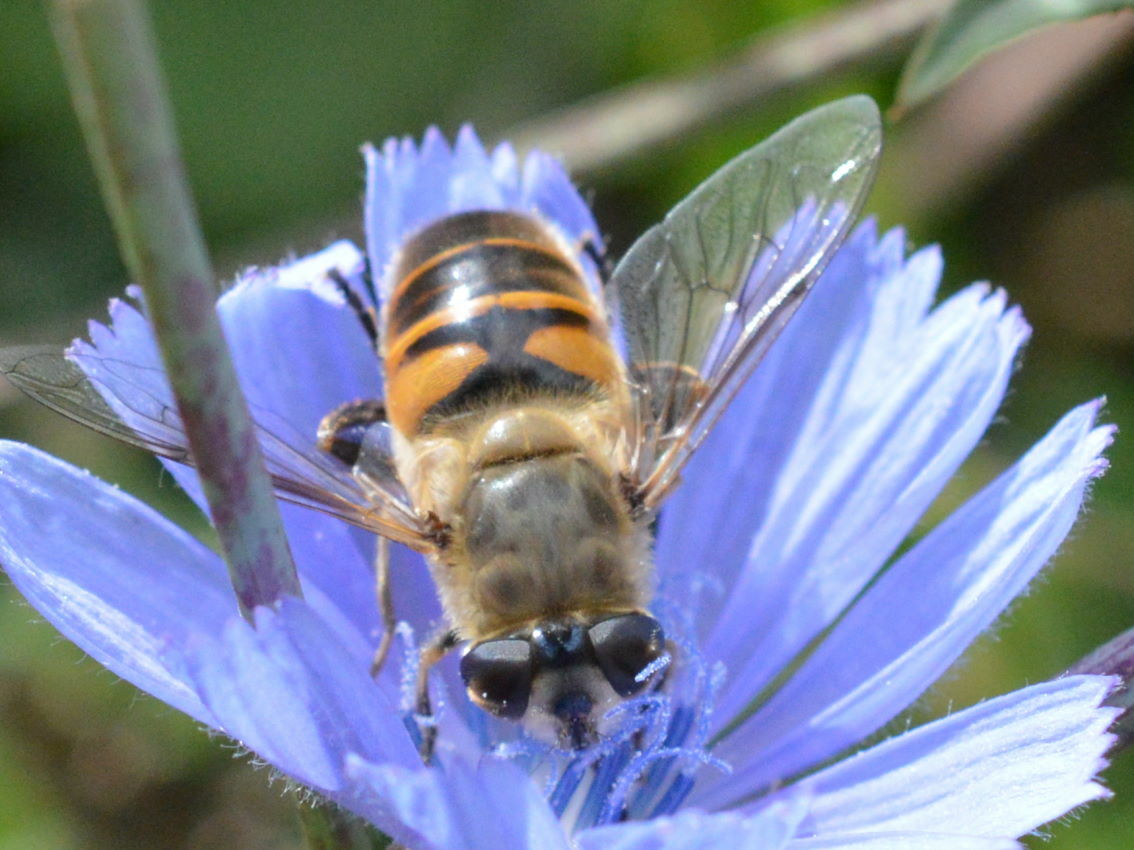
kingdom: Animalia
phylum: Arthropoda
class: Insecta
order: Diptera
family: Syrphidae
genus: Eristalis
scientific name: Eristalis tenax
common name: Drone fly
